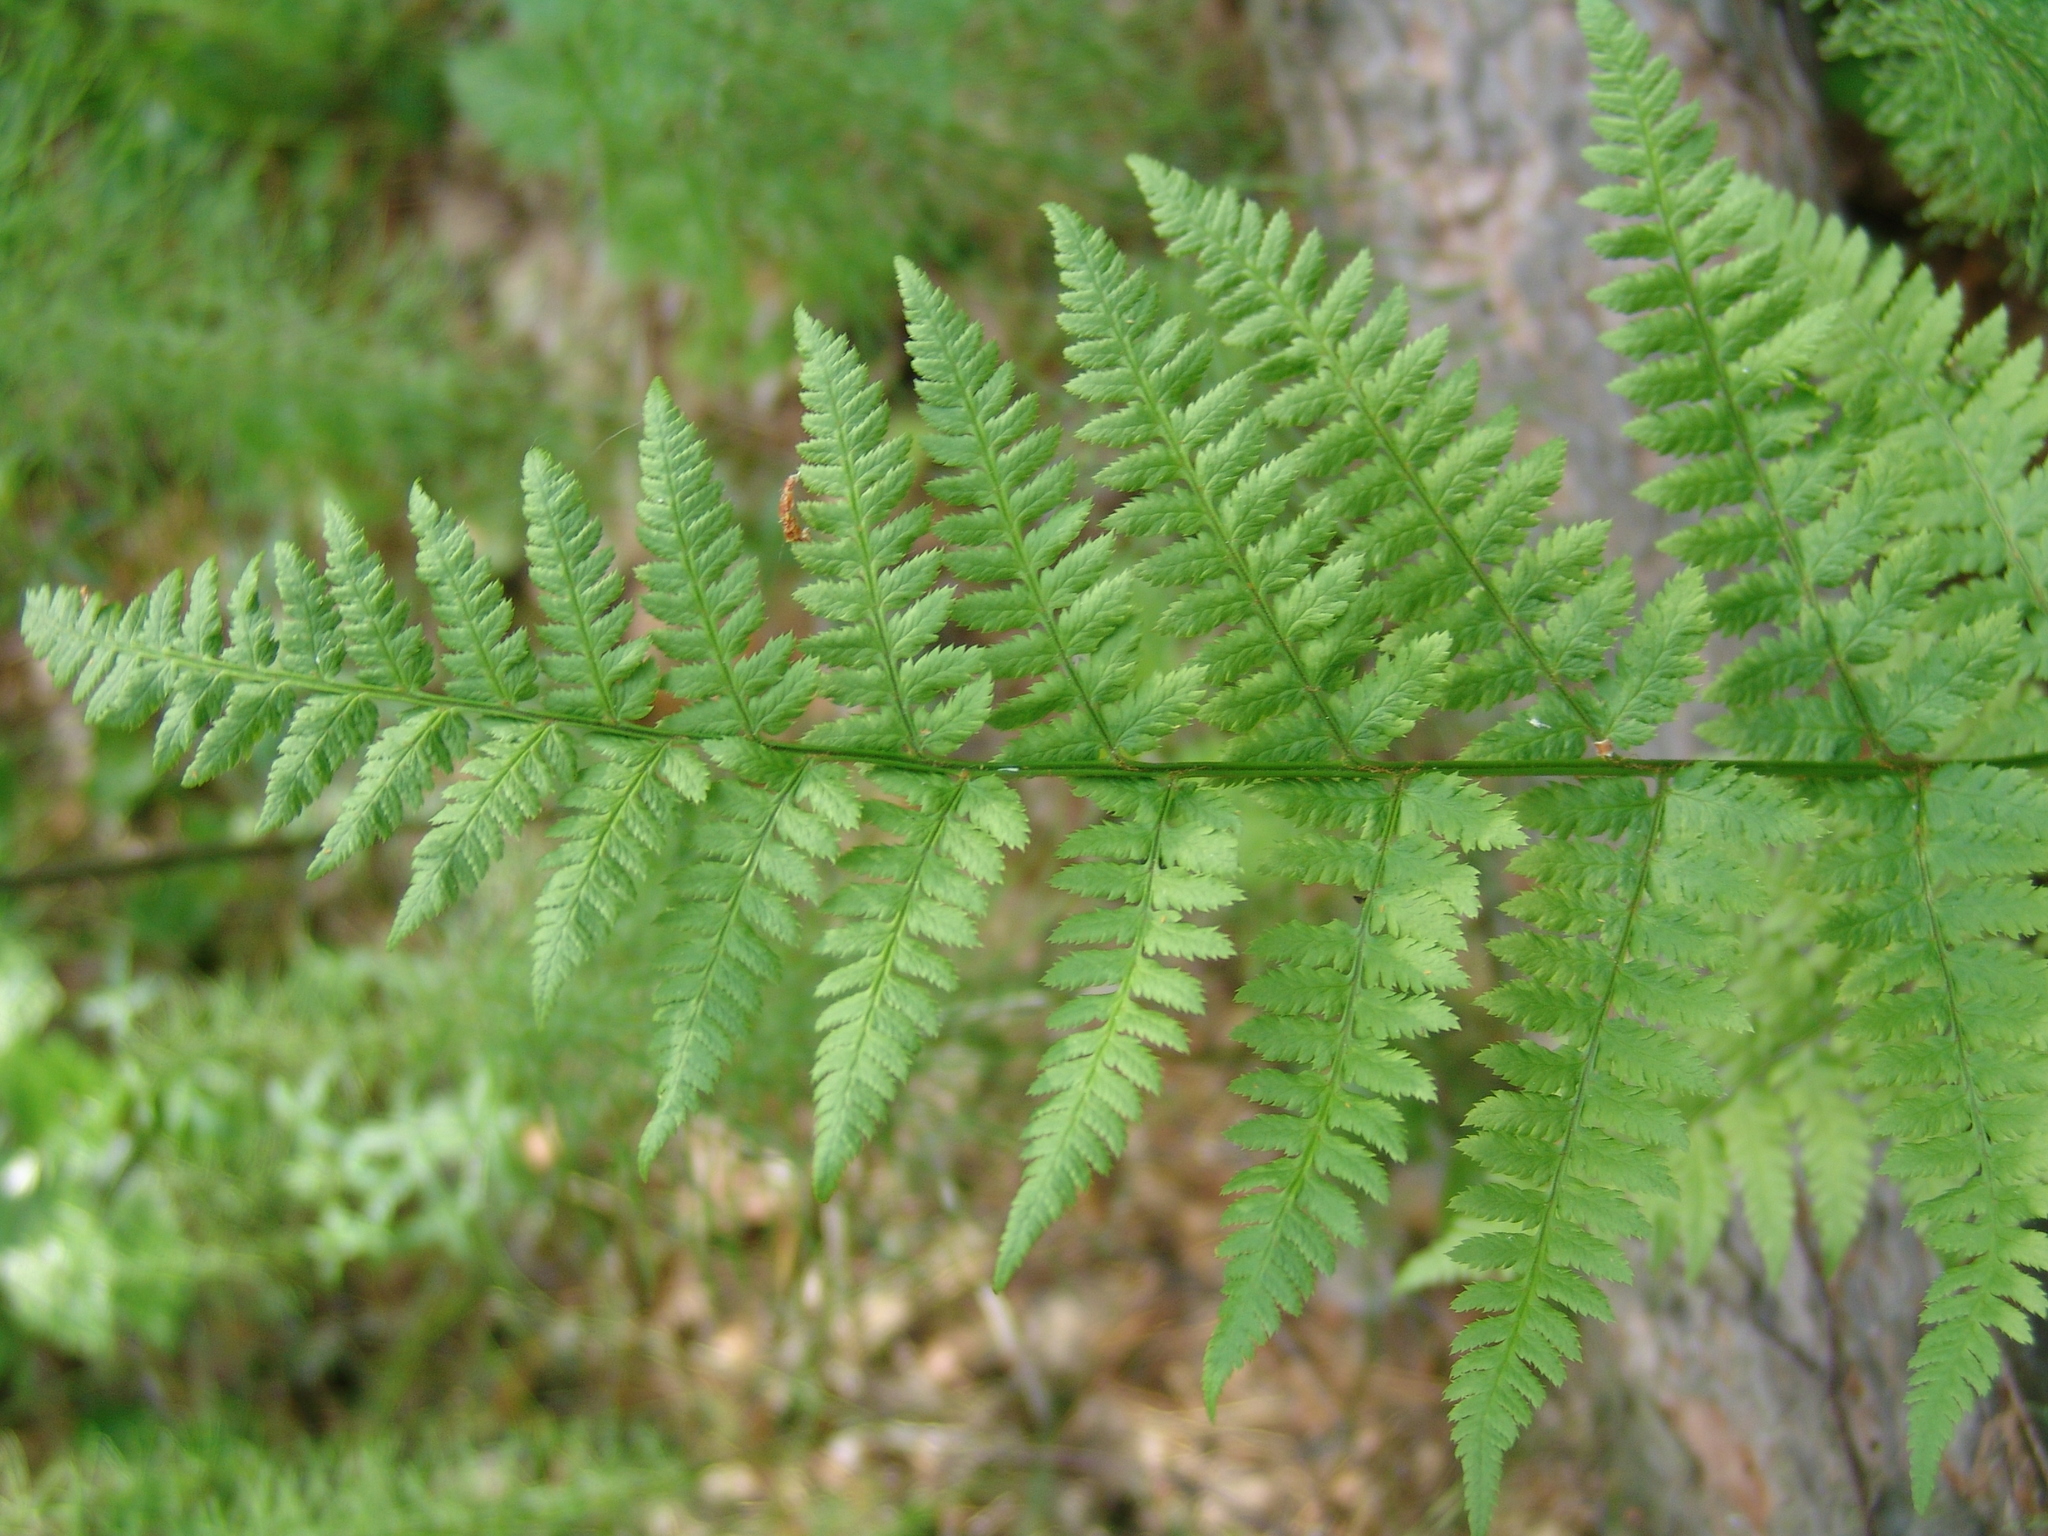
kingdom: Plantae
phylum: Tracheophyta
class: Polypodiopsida
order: Polypodiales
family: Dryopteridaceae
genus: Dryopteris
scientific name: Dryopteris carthusiana
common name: Narrow buckler-fern
